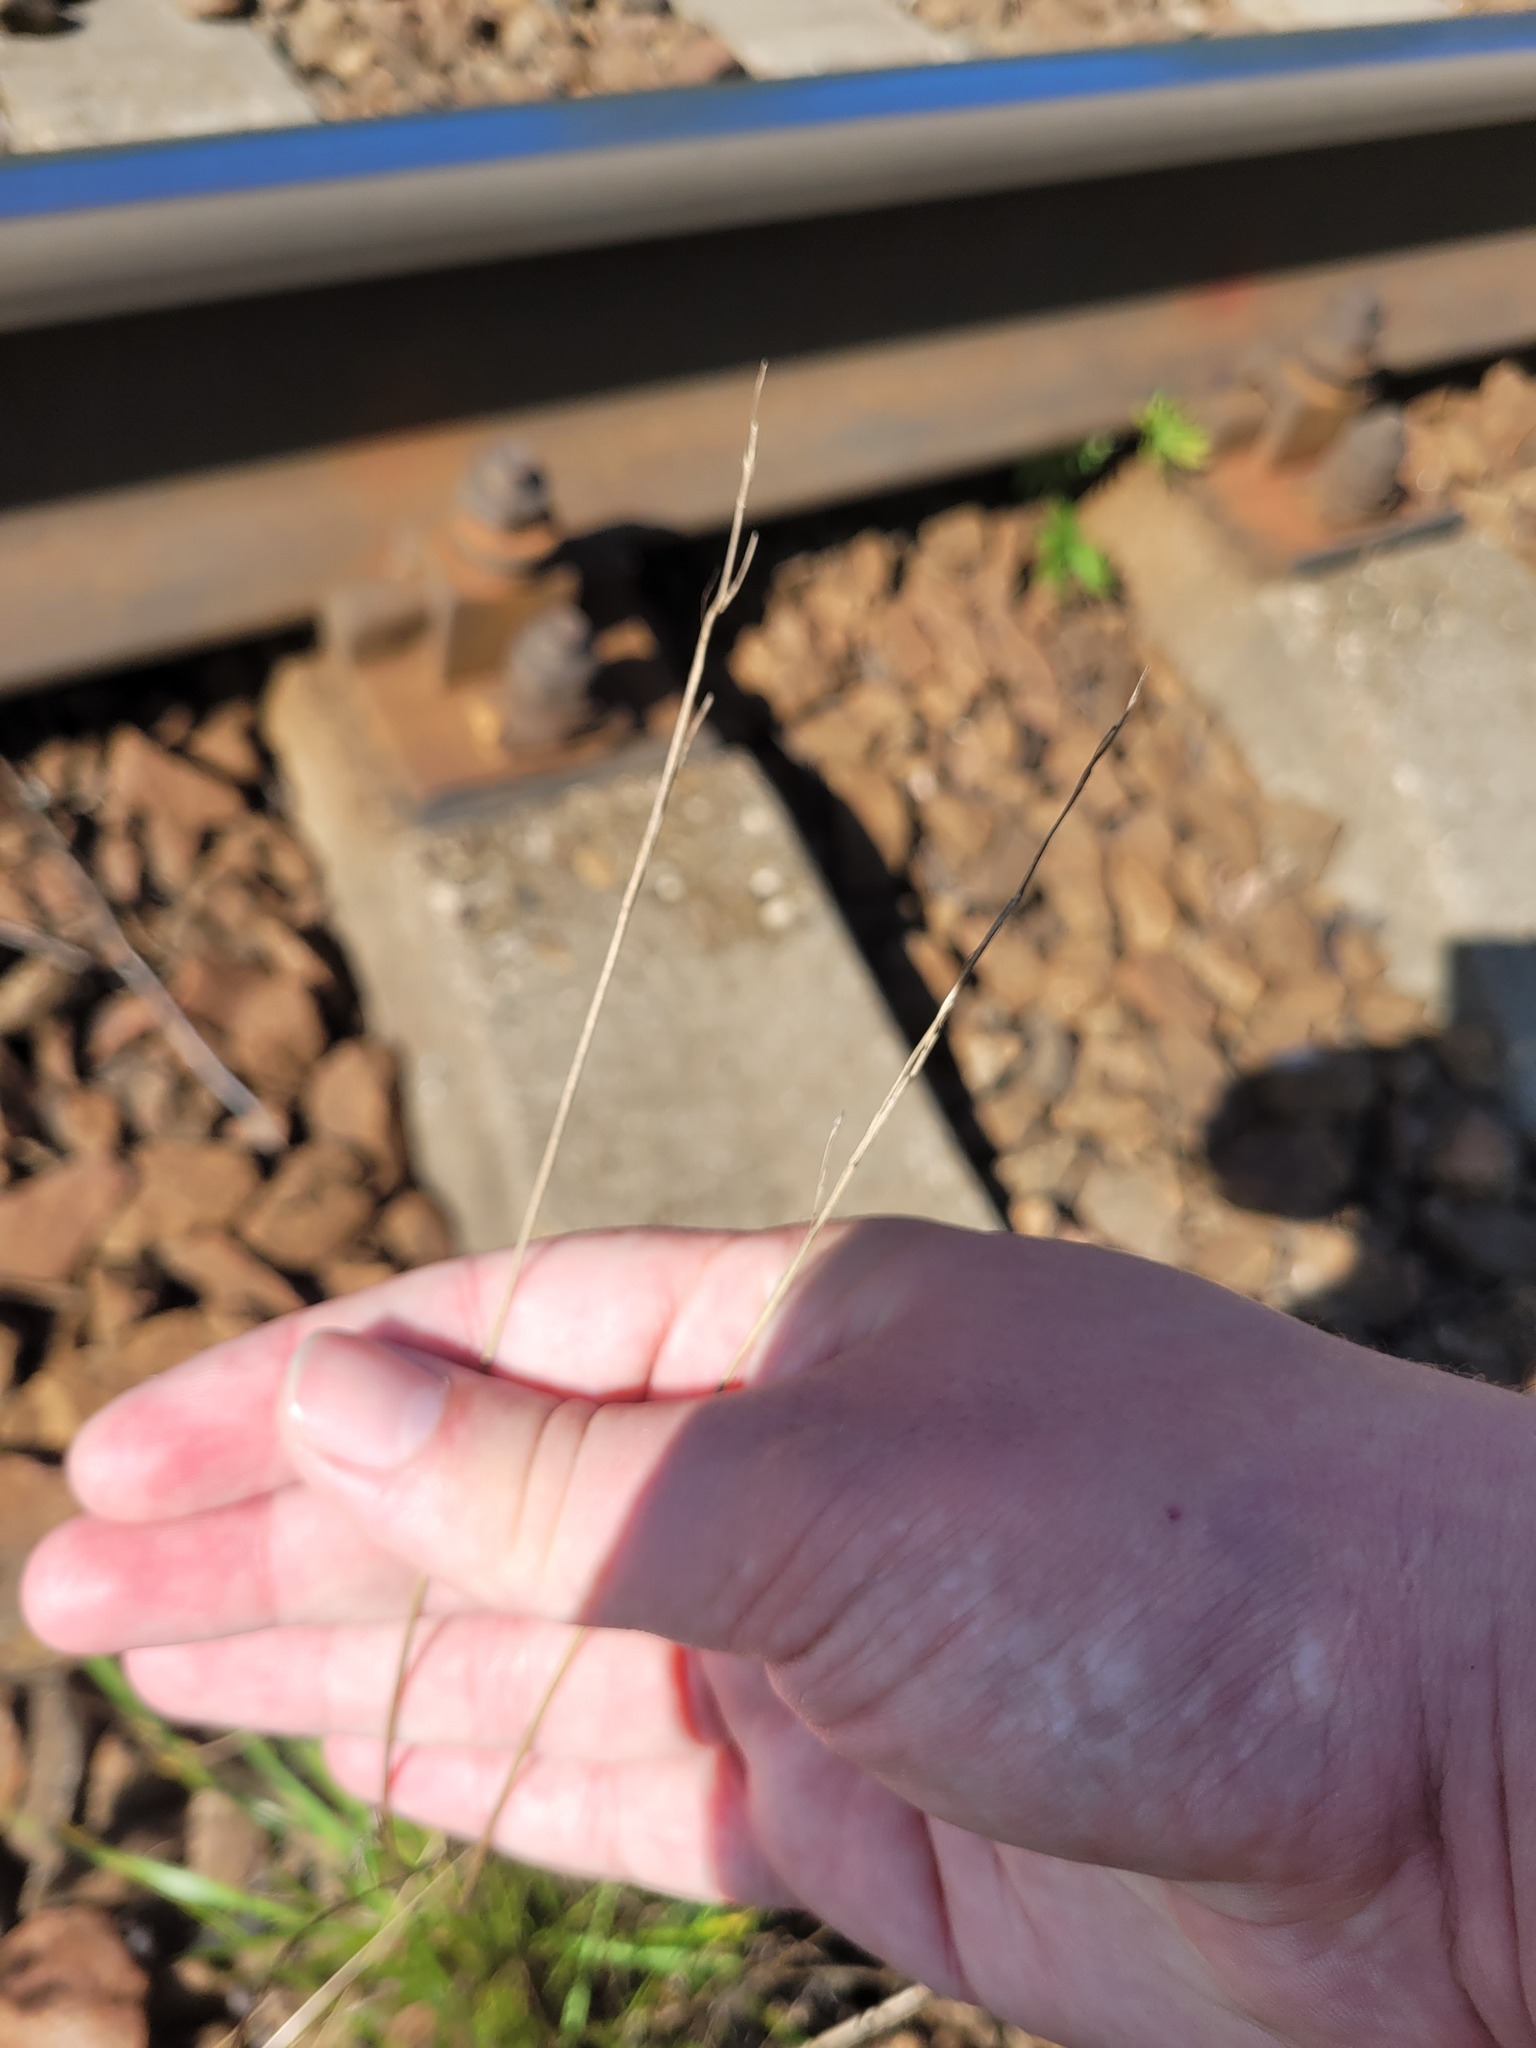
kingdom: Plantae
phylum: Tracheophyta
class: Liliopsida
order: Poales
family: Poaceae
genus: Lolium
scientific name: Lolium pratense
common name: Dover grass
